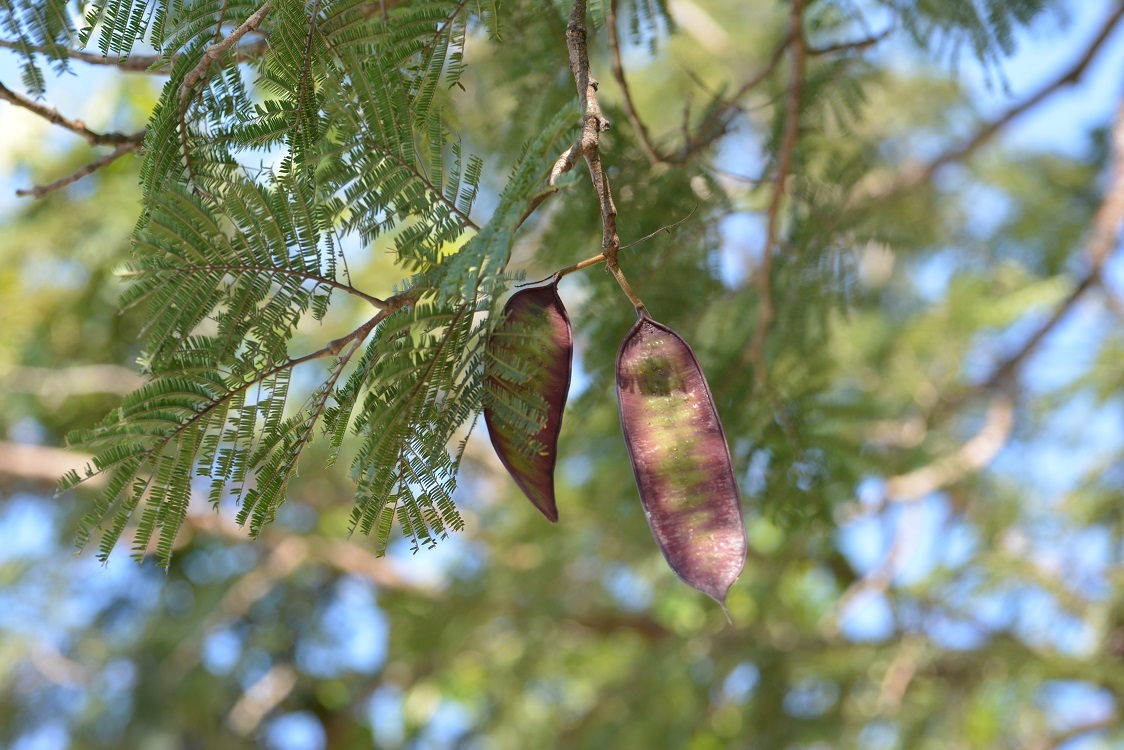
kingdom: Plantae
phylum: Tracheophyta
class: Magnoliopsida
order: Fabales
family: Fabaceae
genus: Lysiloma
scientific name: Lysiloma acapulcense
